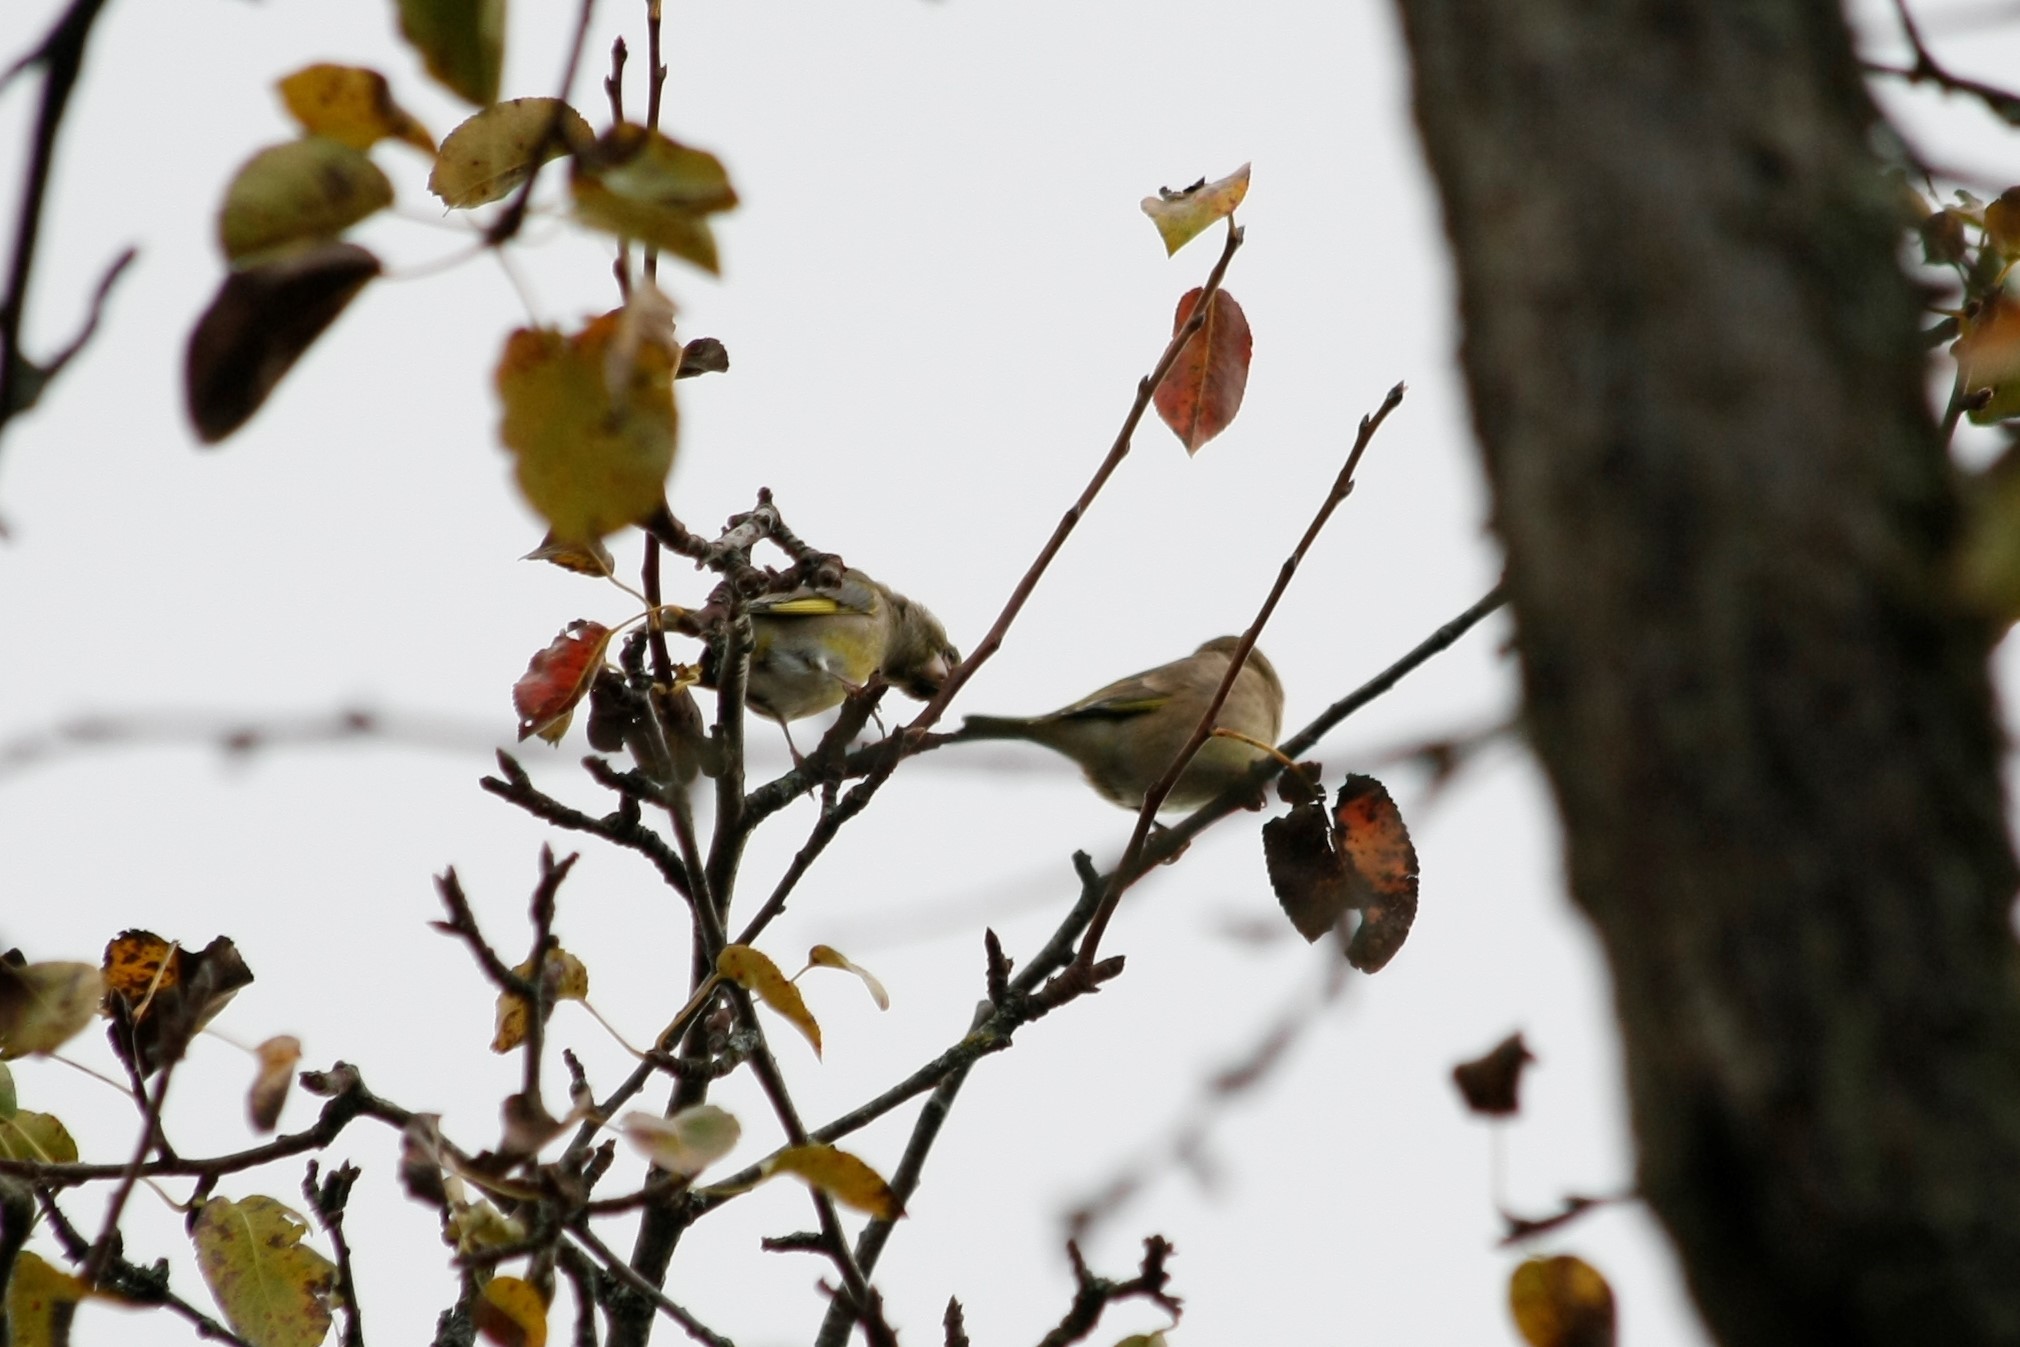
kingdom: Plantae
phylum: Tracheophyta
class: Liliopsida
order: Poales
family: Poaceae
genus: Chloris
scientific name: Chloris chloris
